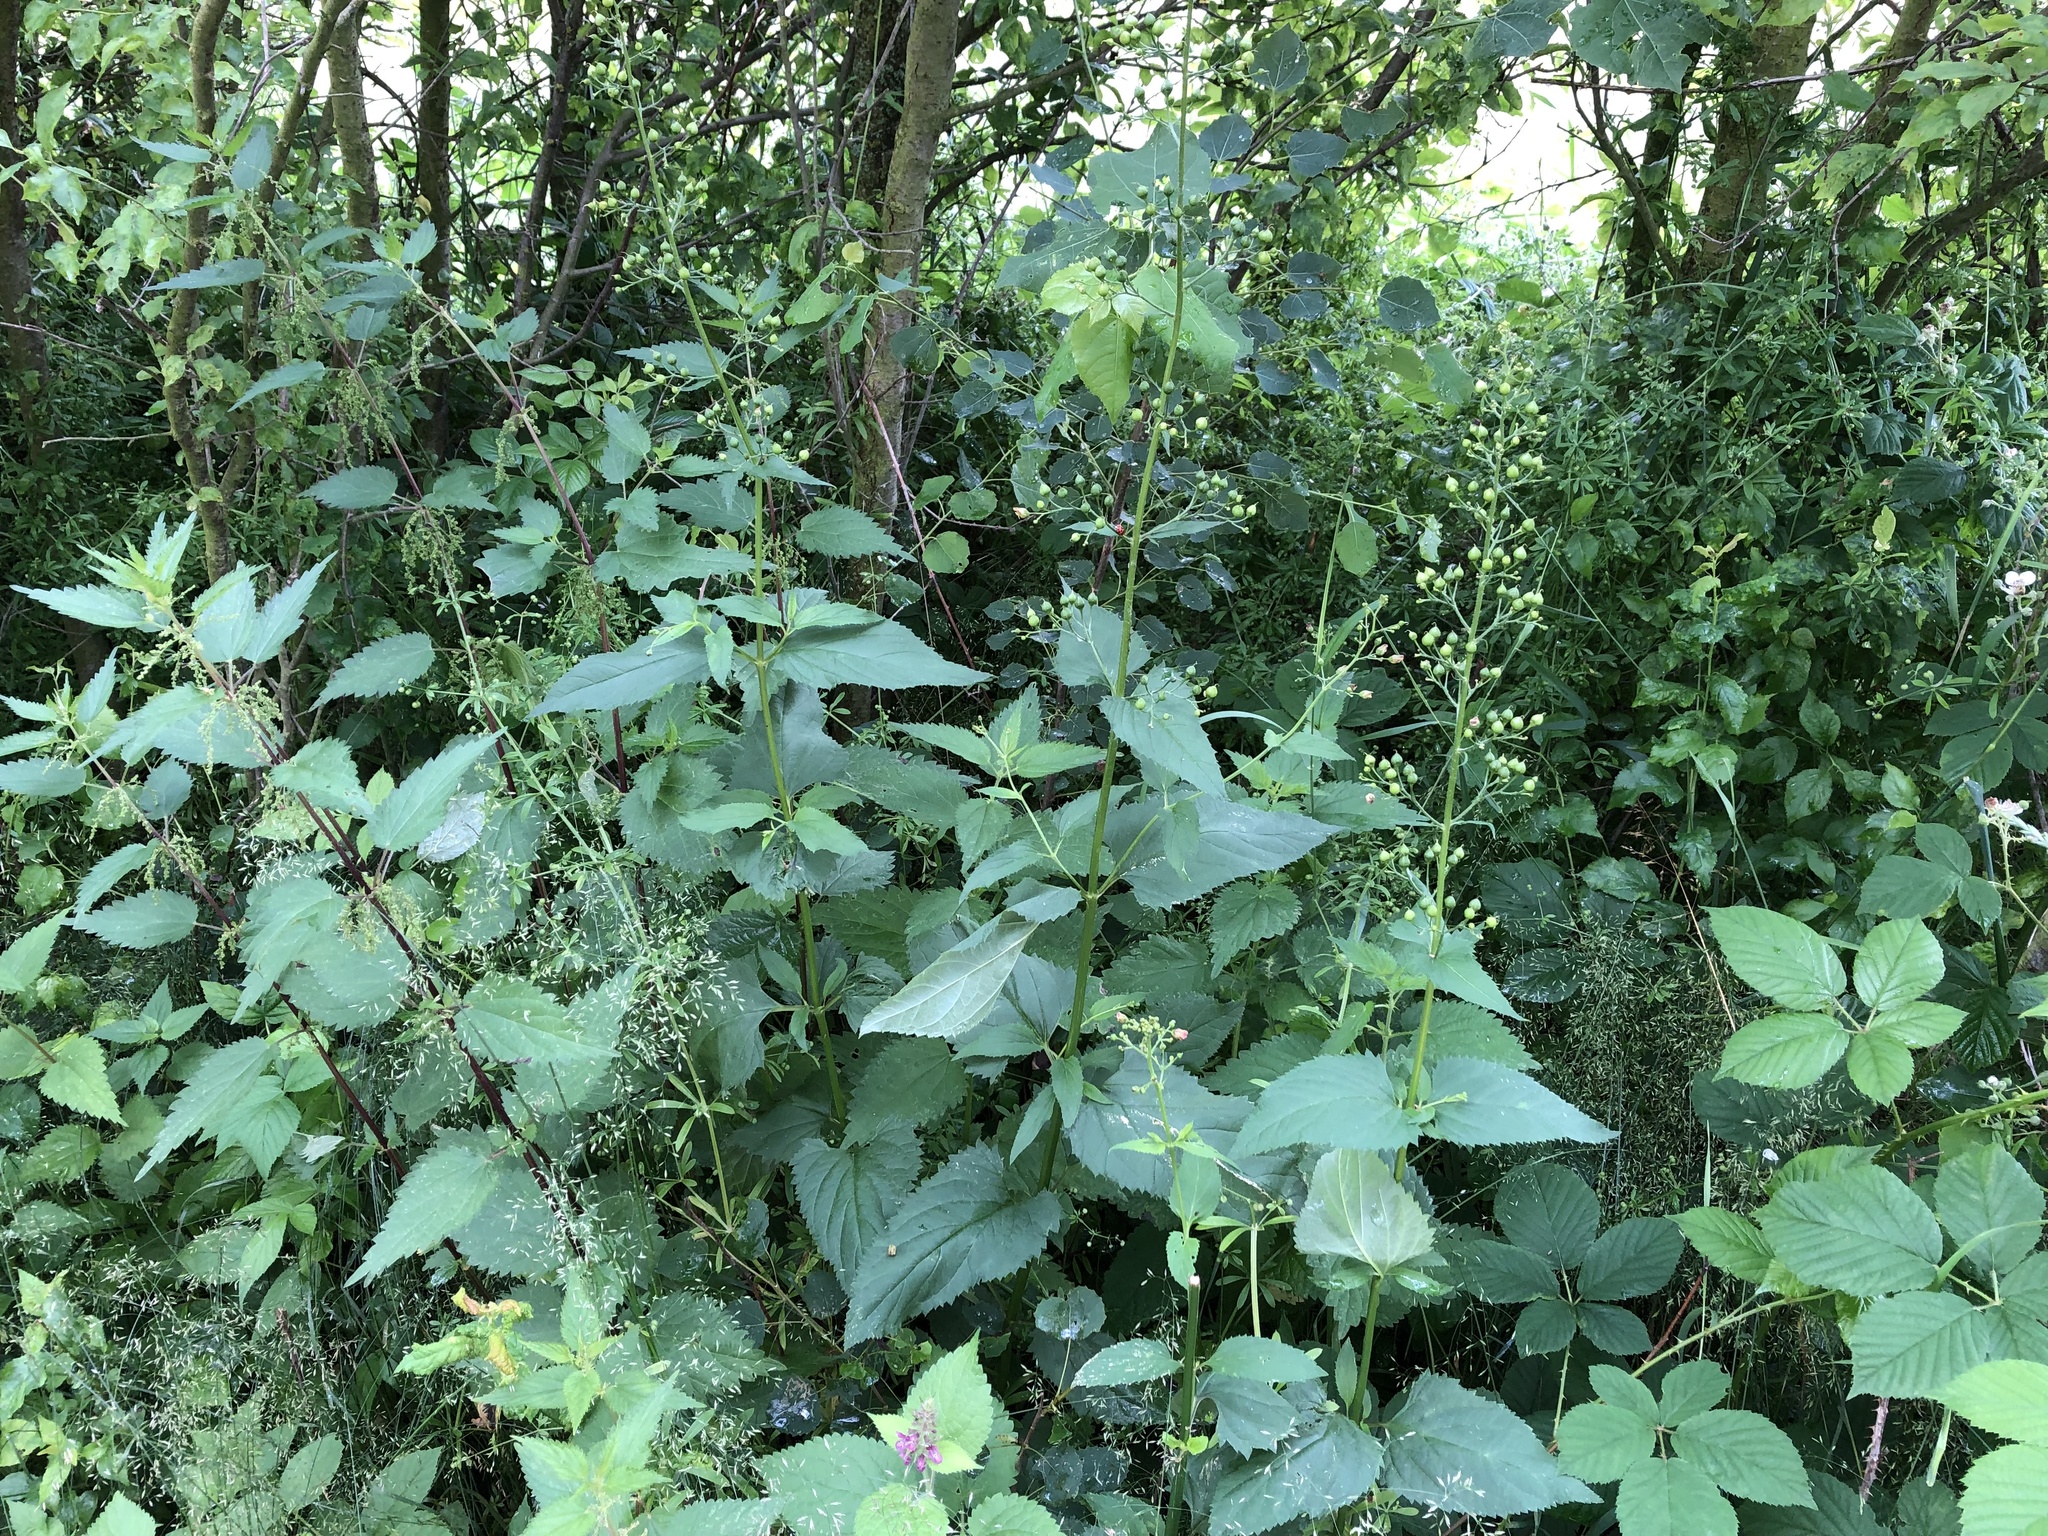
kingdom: Plantae
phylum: Tracheophyta
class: Magnoliopsida
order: Lamiales
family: Scrophulariaceae
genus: Scrophularia
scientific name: Scrophularia nodosa
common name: Common figwort
